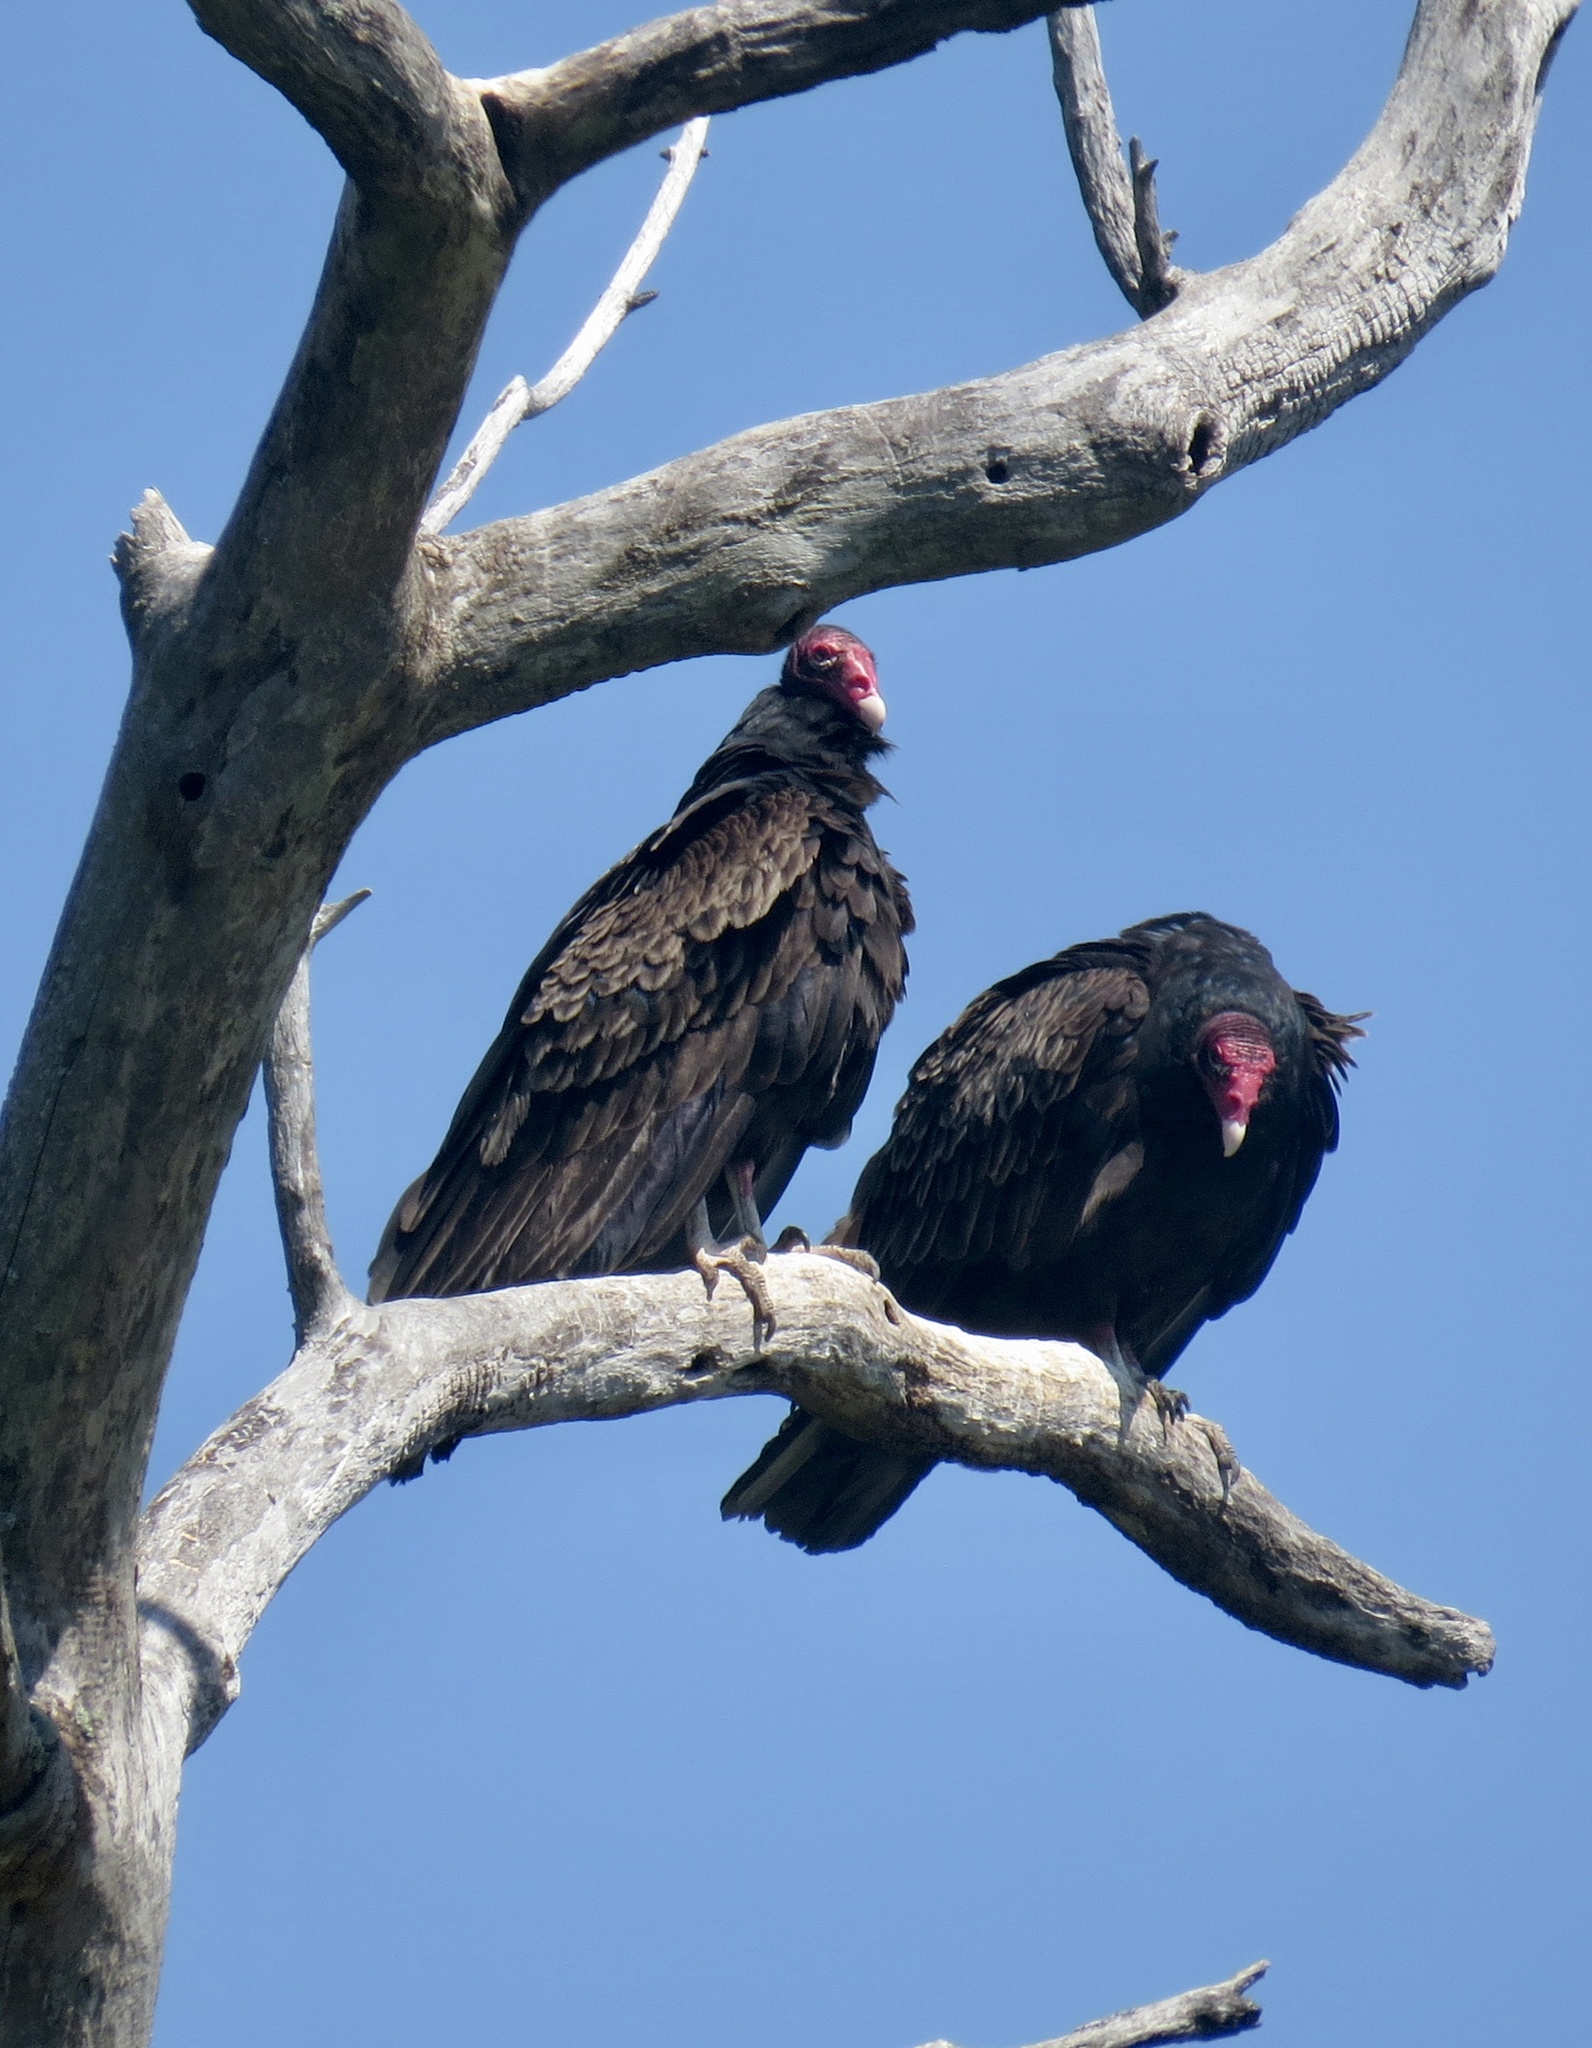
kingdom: Animalia
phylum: Chordata
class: Aves
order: Accipitriformes
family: Cathartidae
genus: Cathartes
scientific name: Cathartes aura
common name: Turkey vulture
